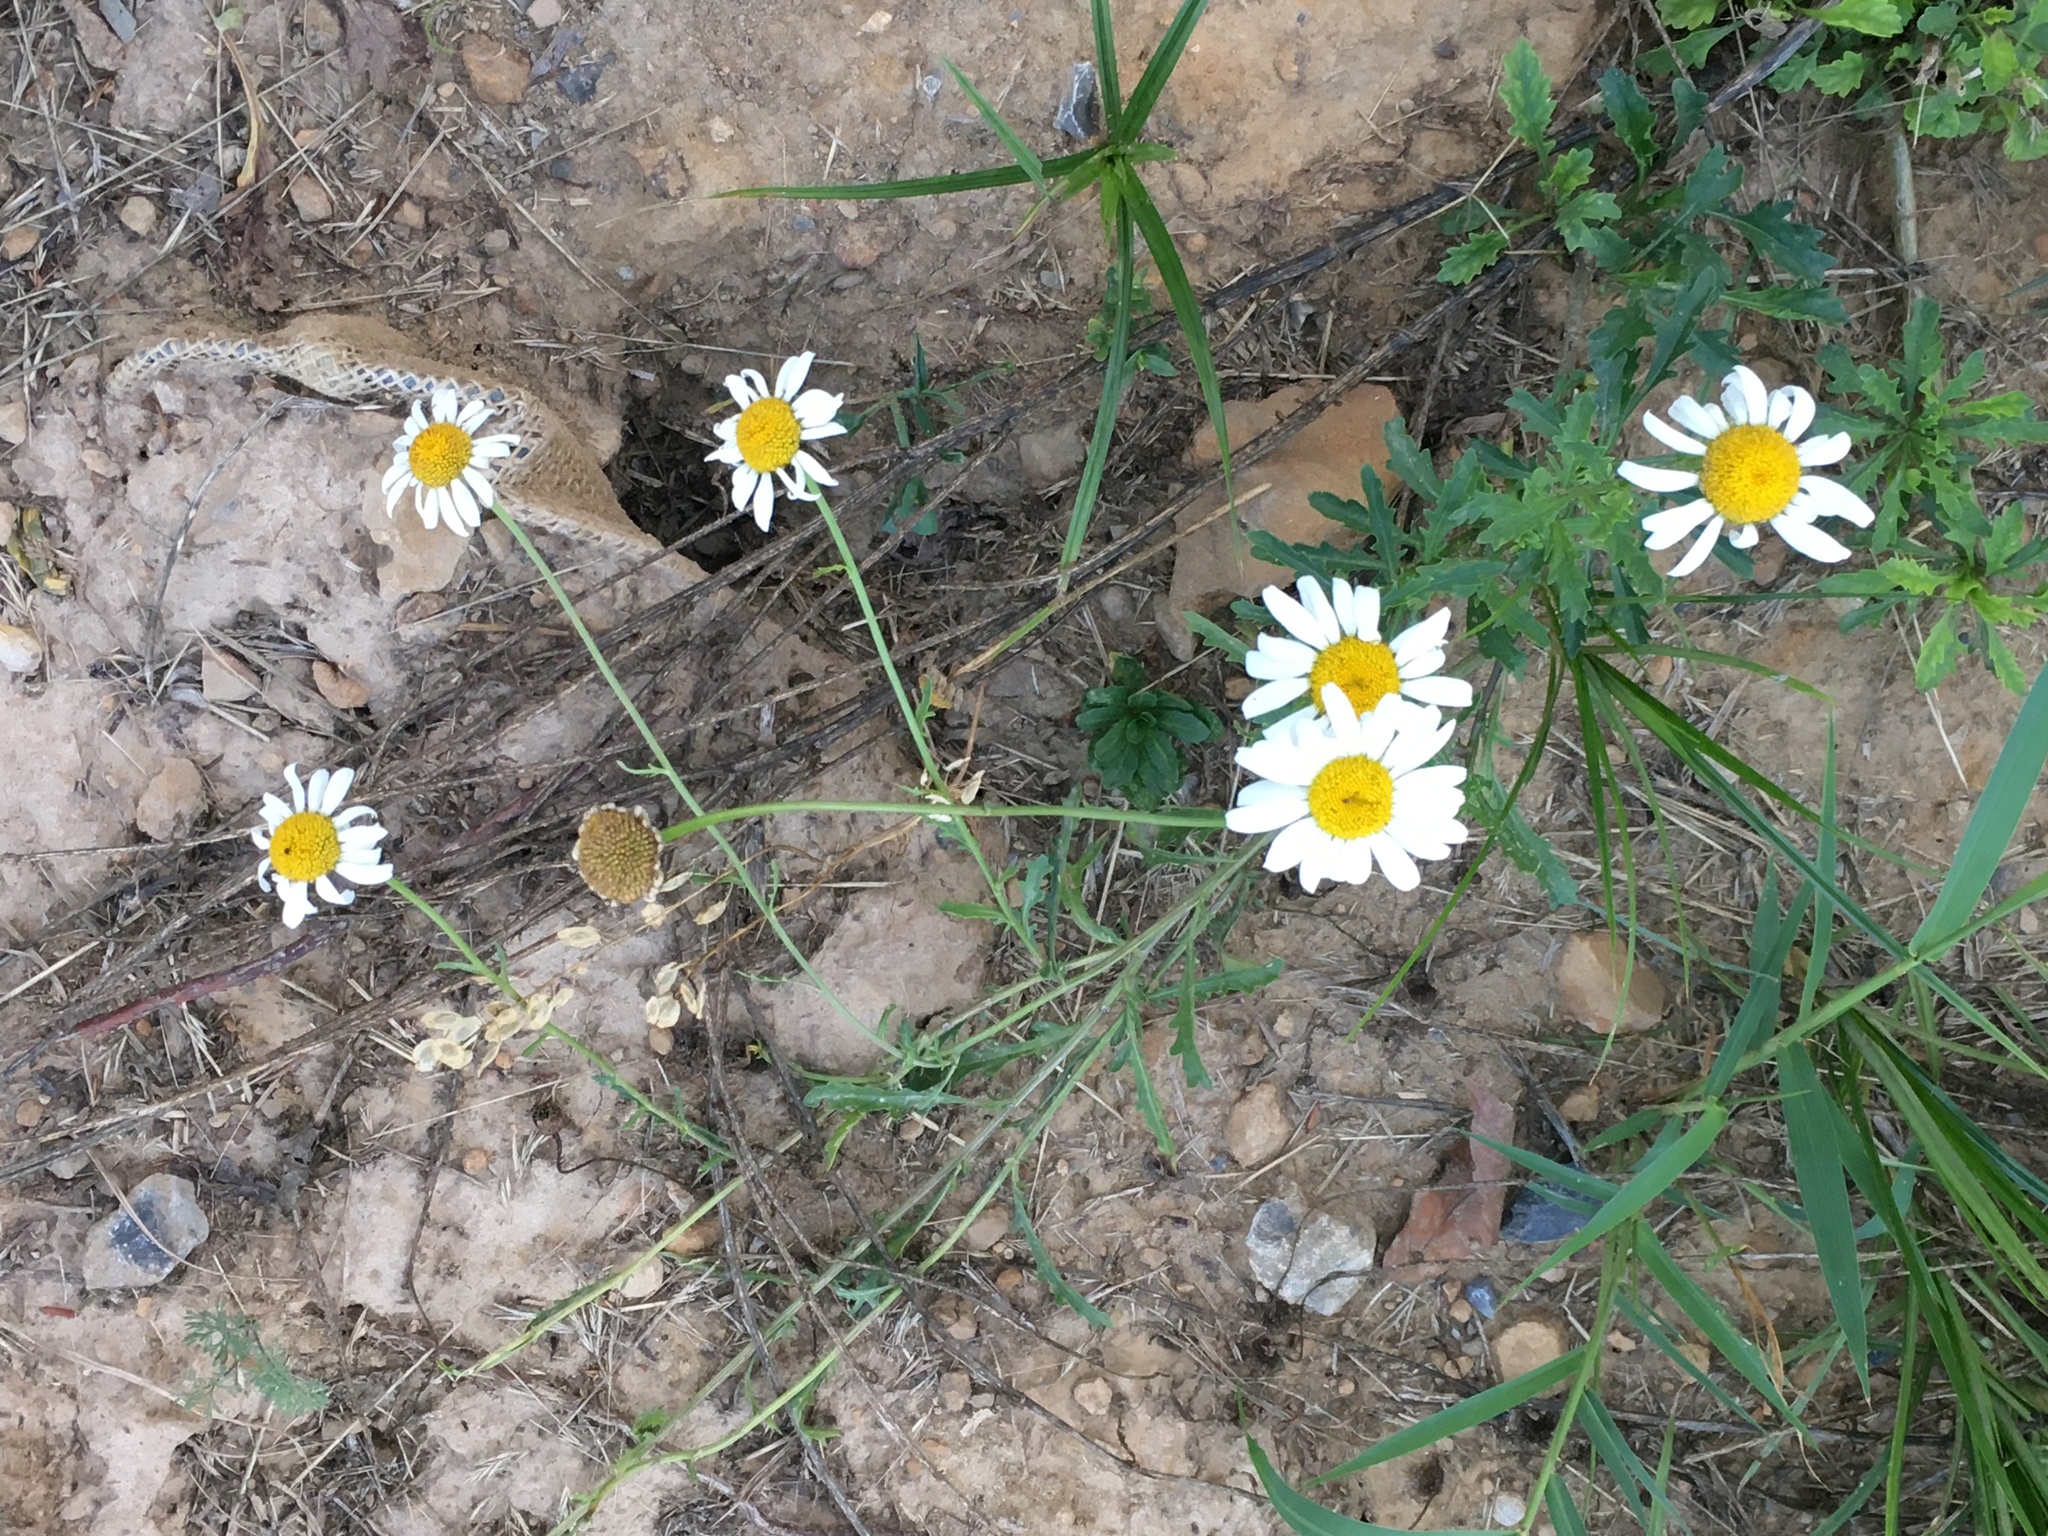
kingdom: Plantae
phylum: Tracheophyta
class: Magnoliopsida
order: Asterales
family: Asteraceae
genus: Leucanthemum
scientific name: Leucanthemum vulgare
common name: Oxeye daisy
